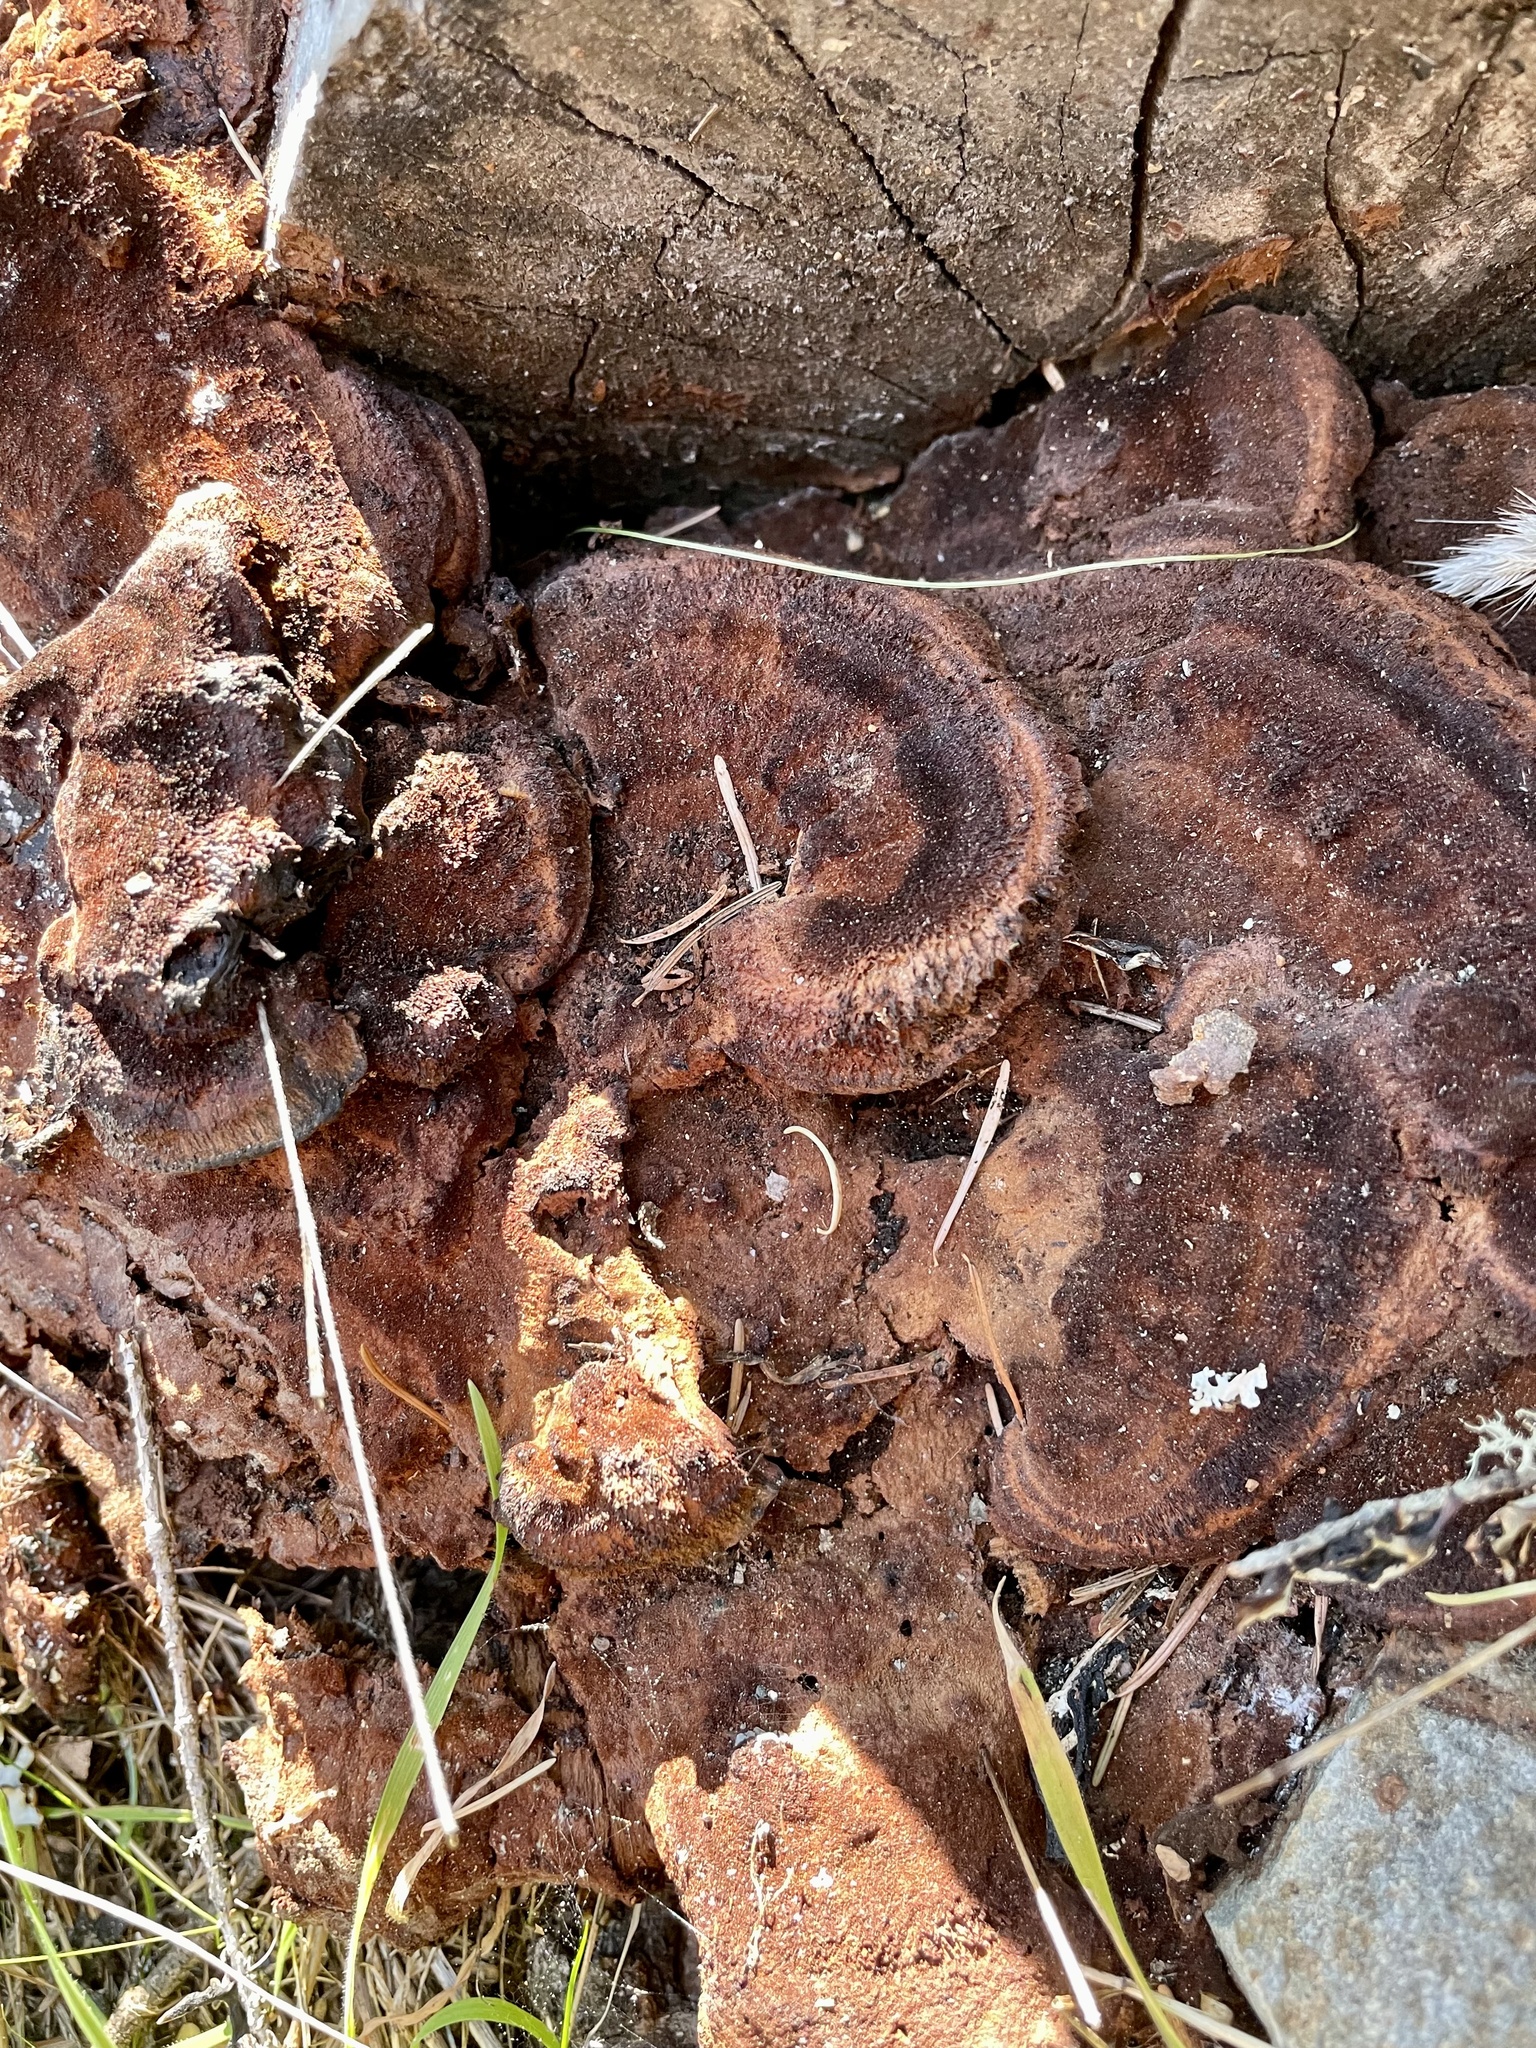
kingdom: Fungi
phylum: Basidiomycota
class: Agaricomycetes
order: Polyporales
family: Laetiporaceae
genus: Phaeolus
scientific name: Phaeolus schweinitzii
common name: Dyer's mazegill
